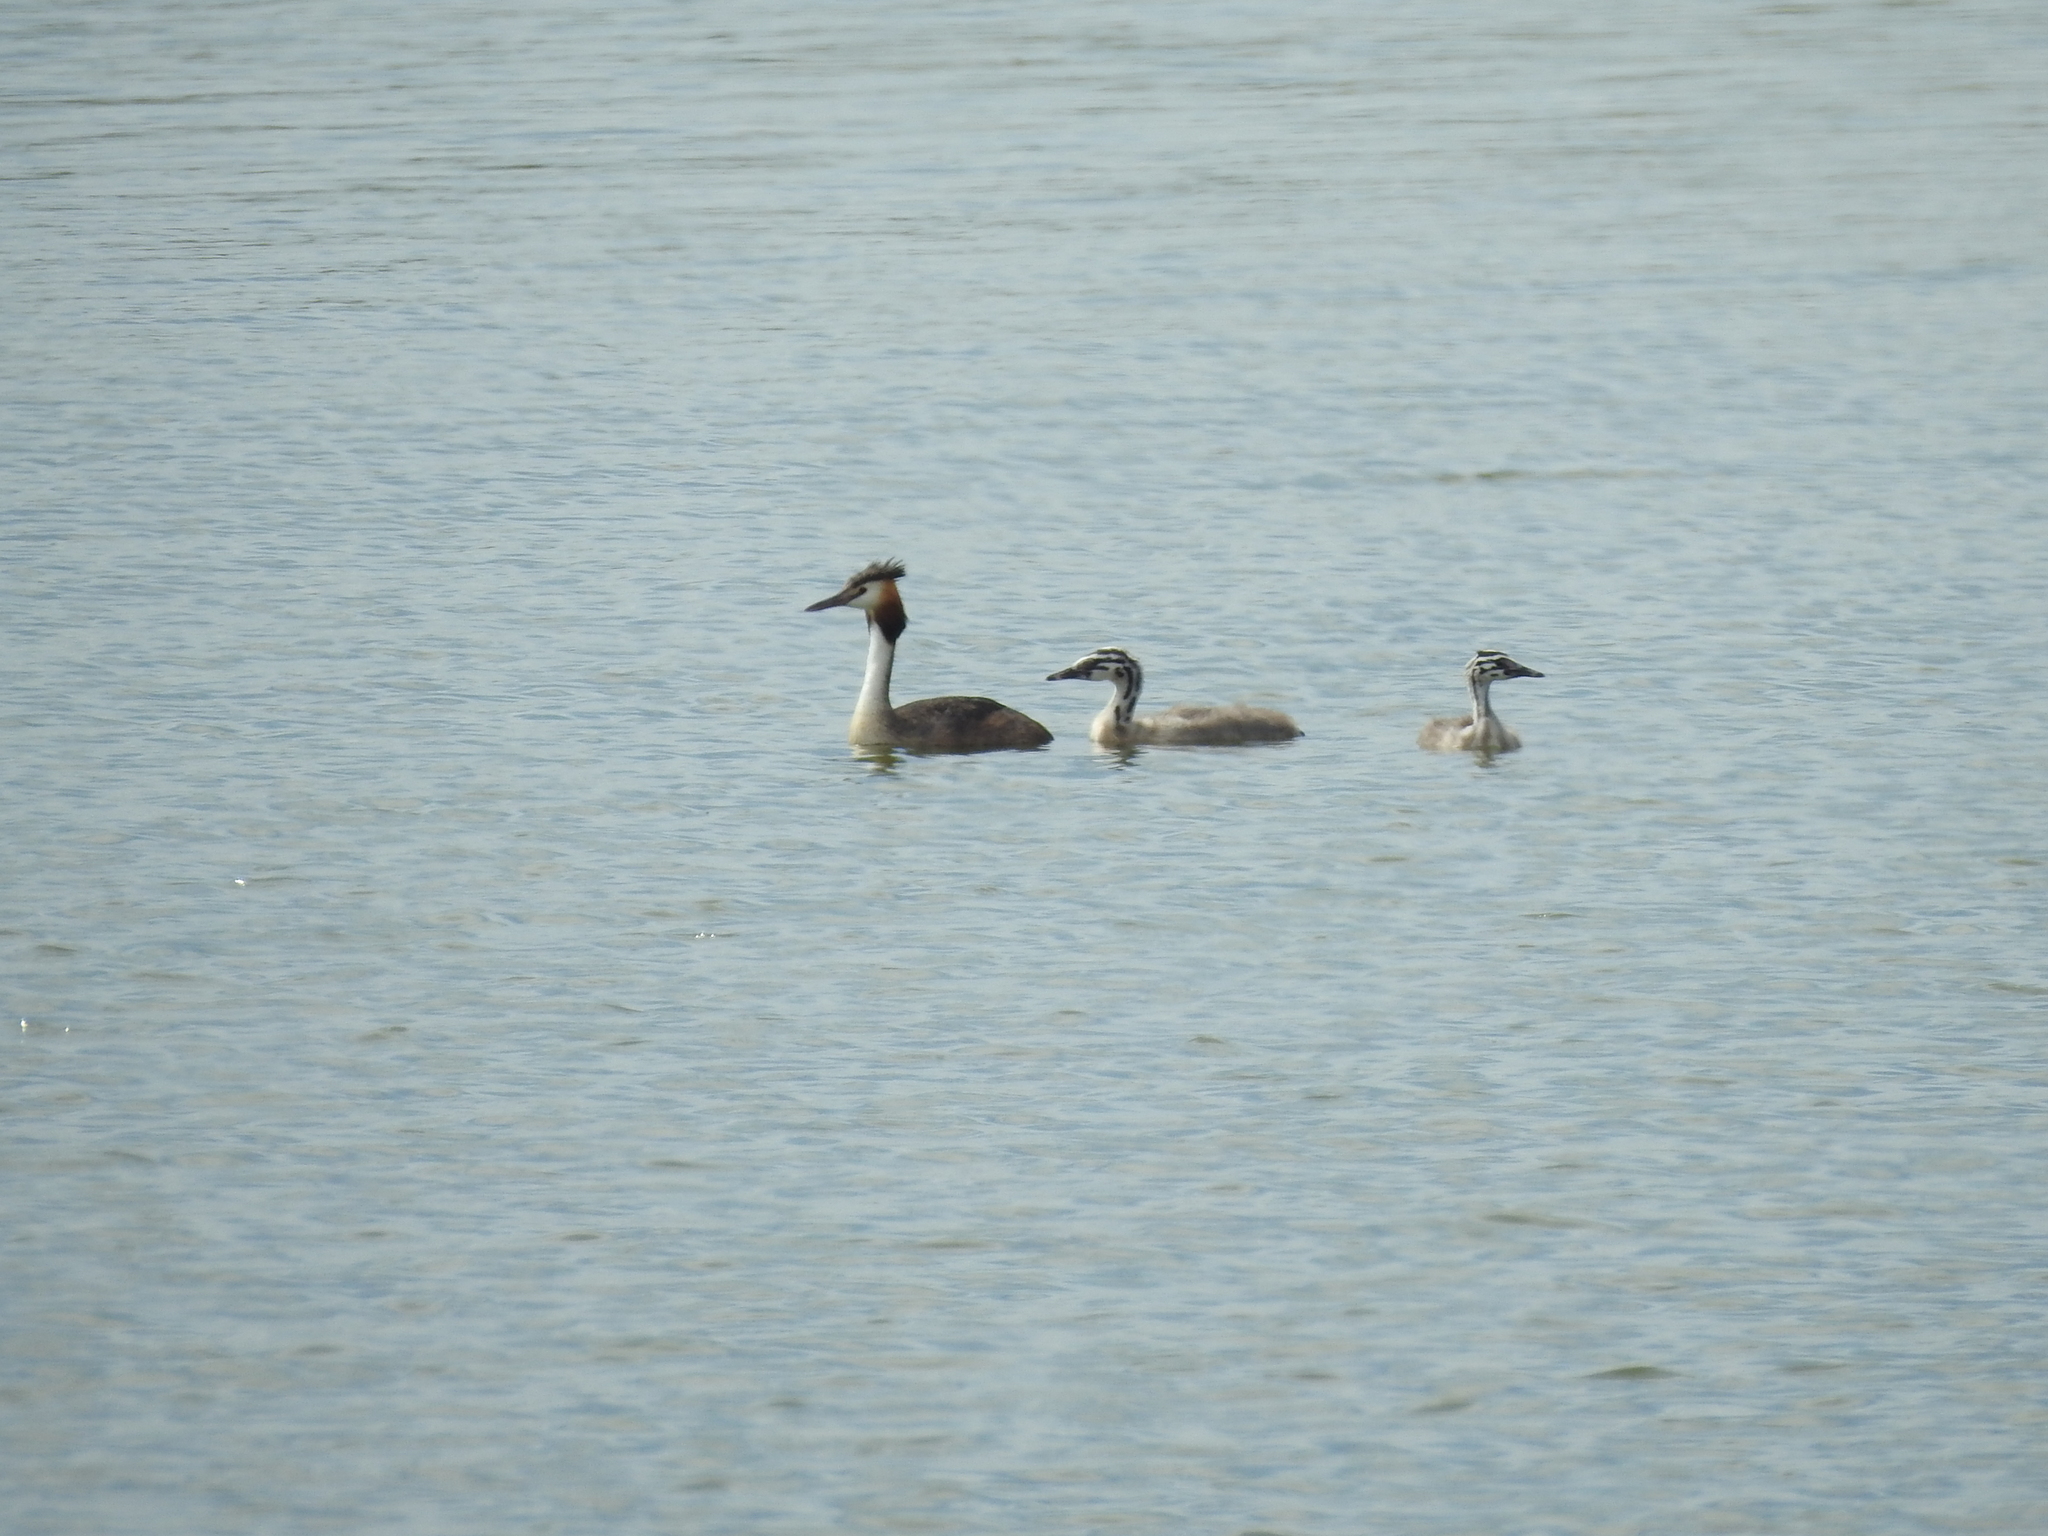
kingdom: Animalia
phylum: Chordata
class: Aves
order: Podicipediformes
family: Podicipedidae
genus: Podiceps
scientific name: Podiceps cristatus
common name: Great crested grebe
